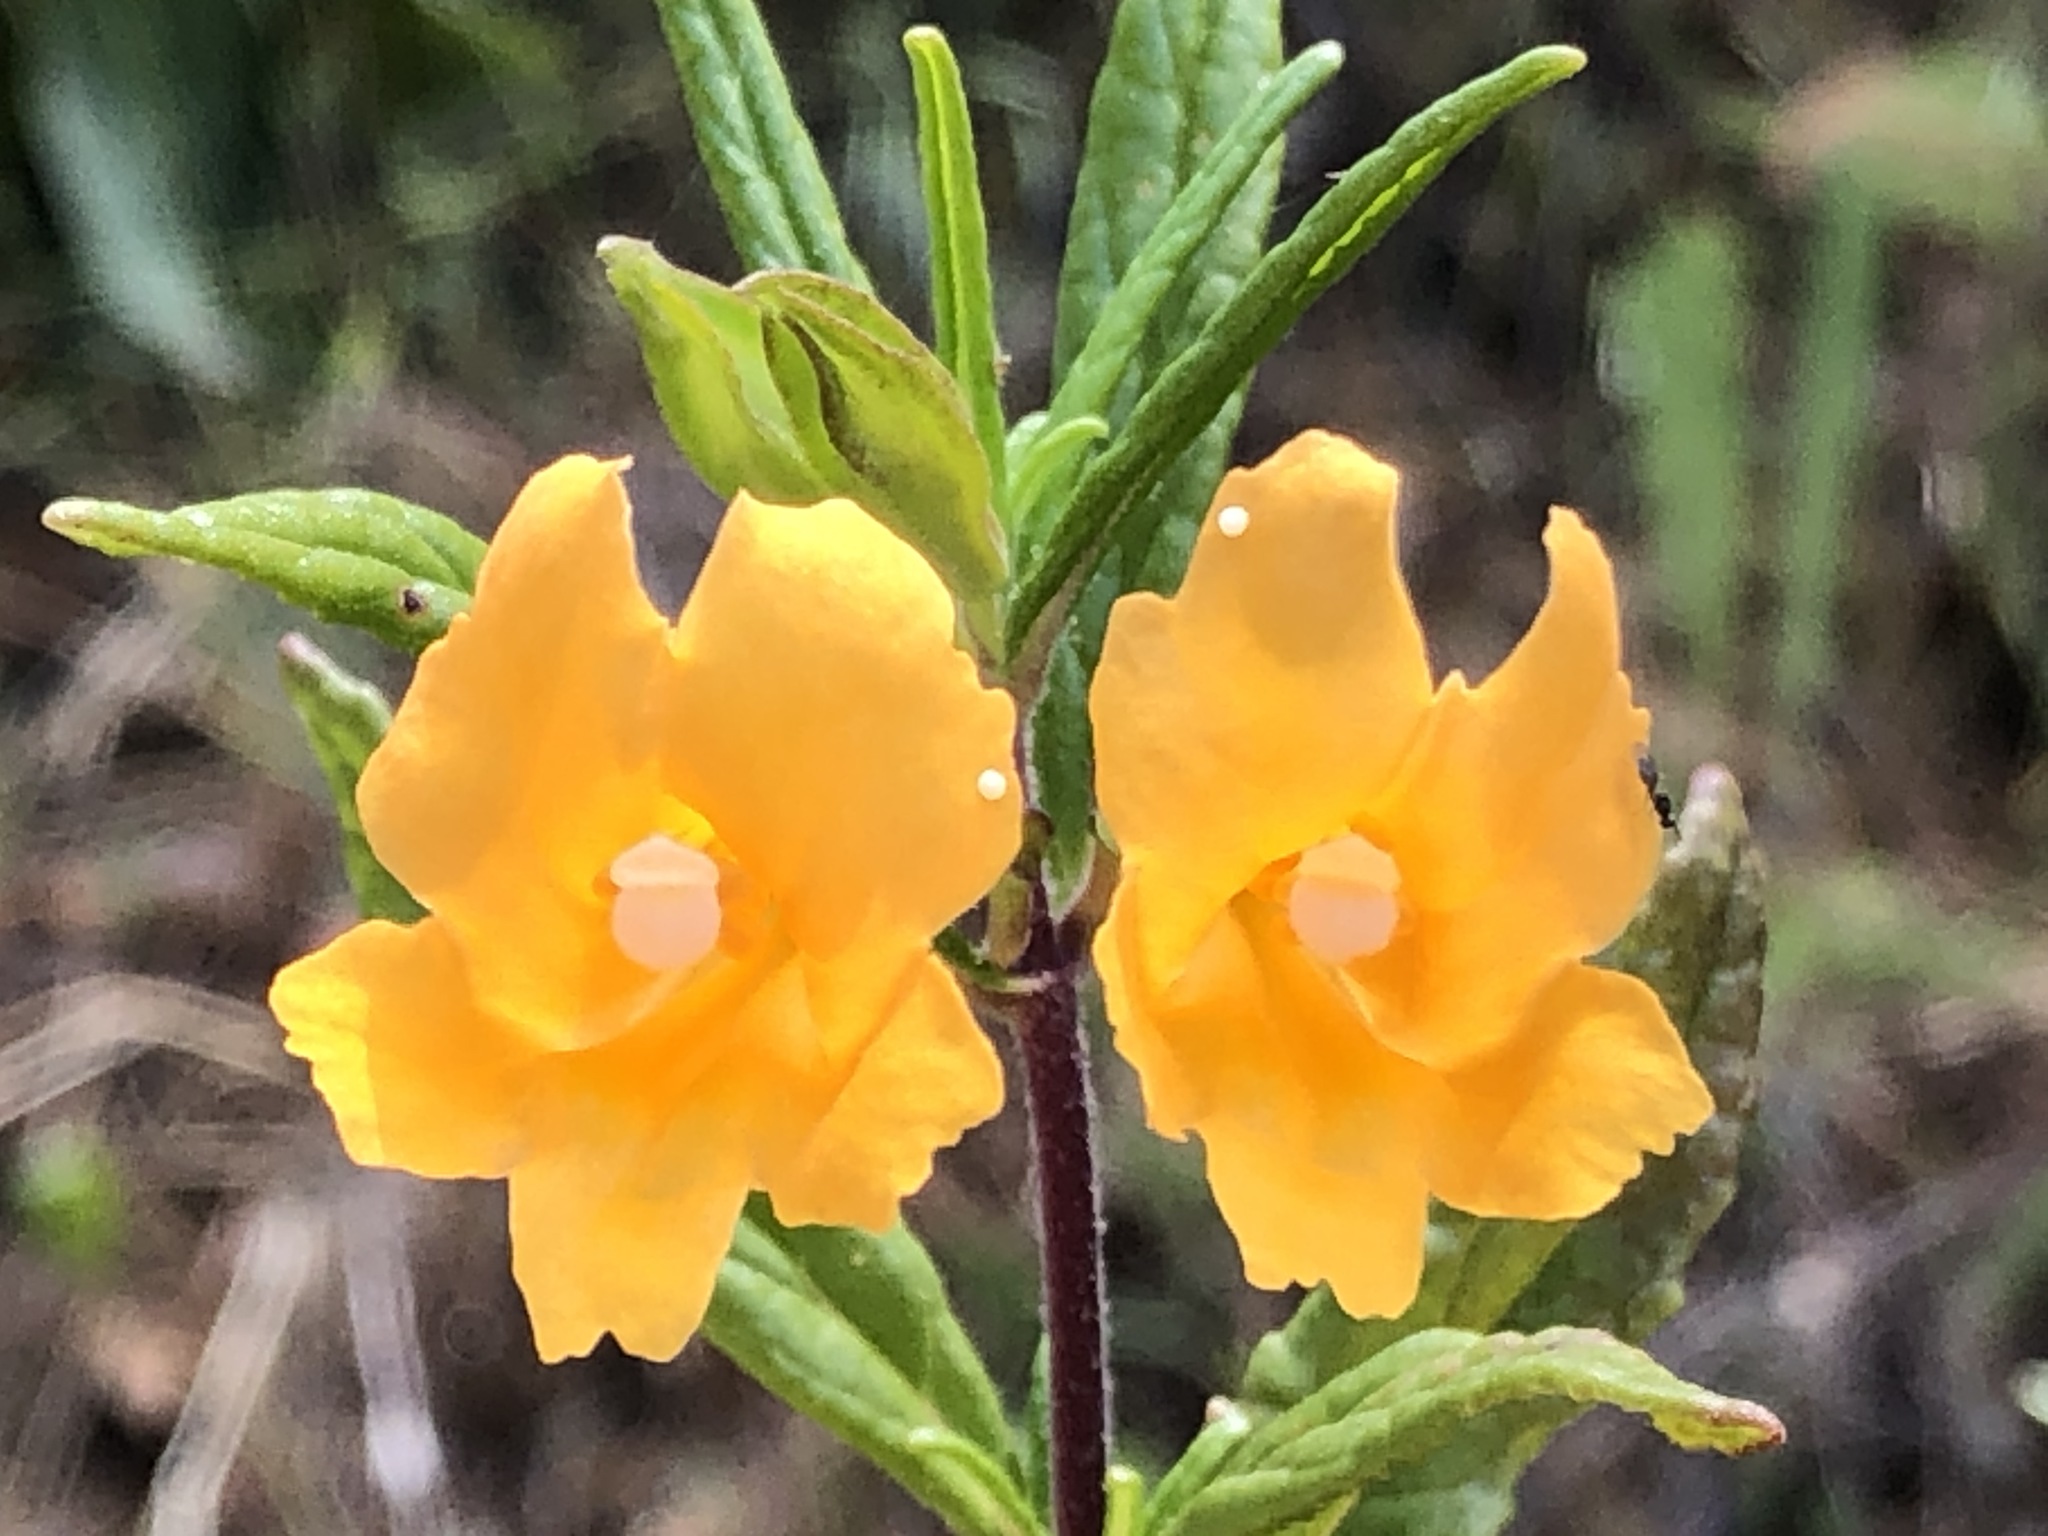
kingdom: Plantae
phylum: Tracheophyta
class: Magnoliopsida
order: Lamiales
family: Phrymaceae
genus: Diplacus
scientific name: Diplacus aurantiacus
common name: Bush monkey-flower
